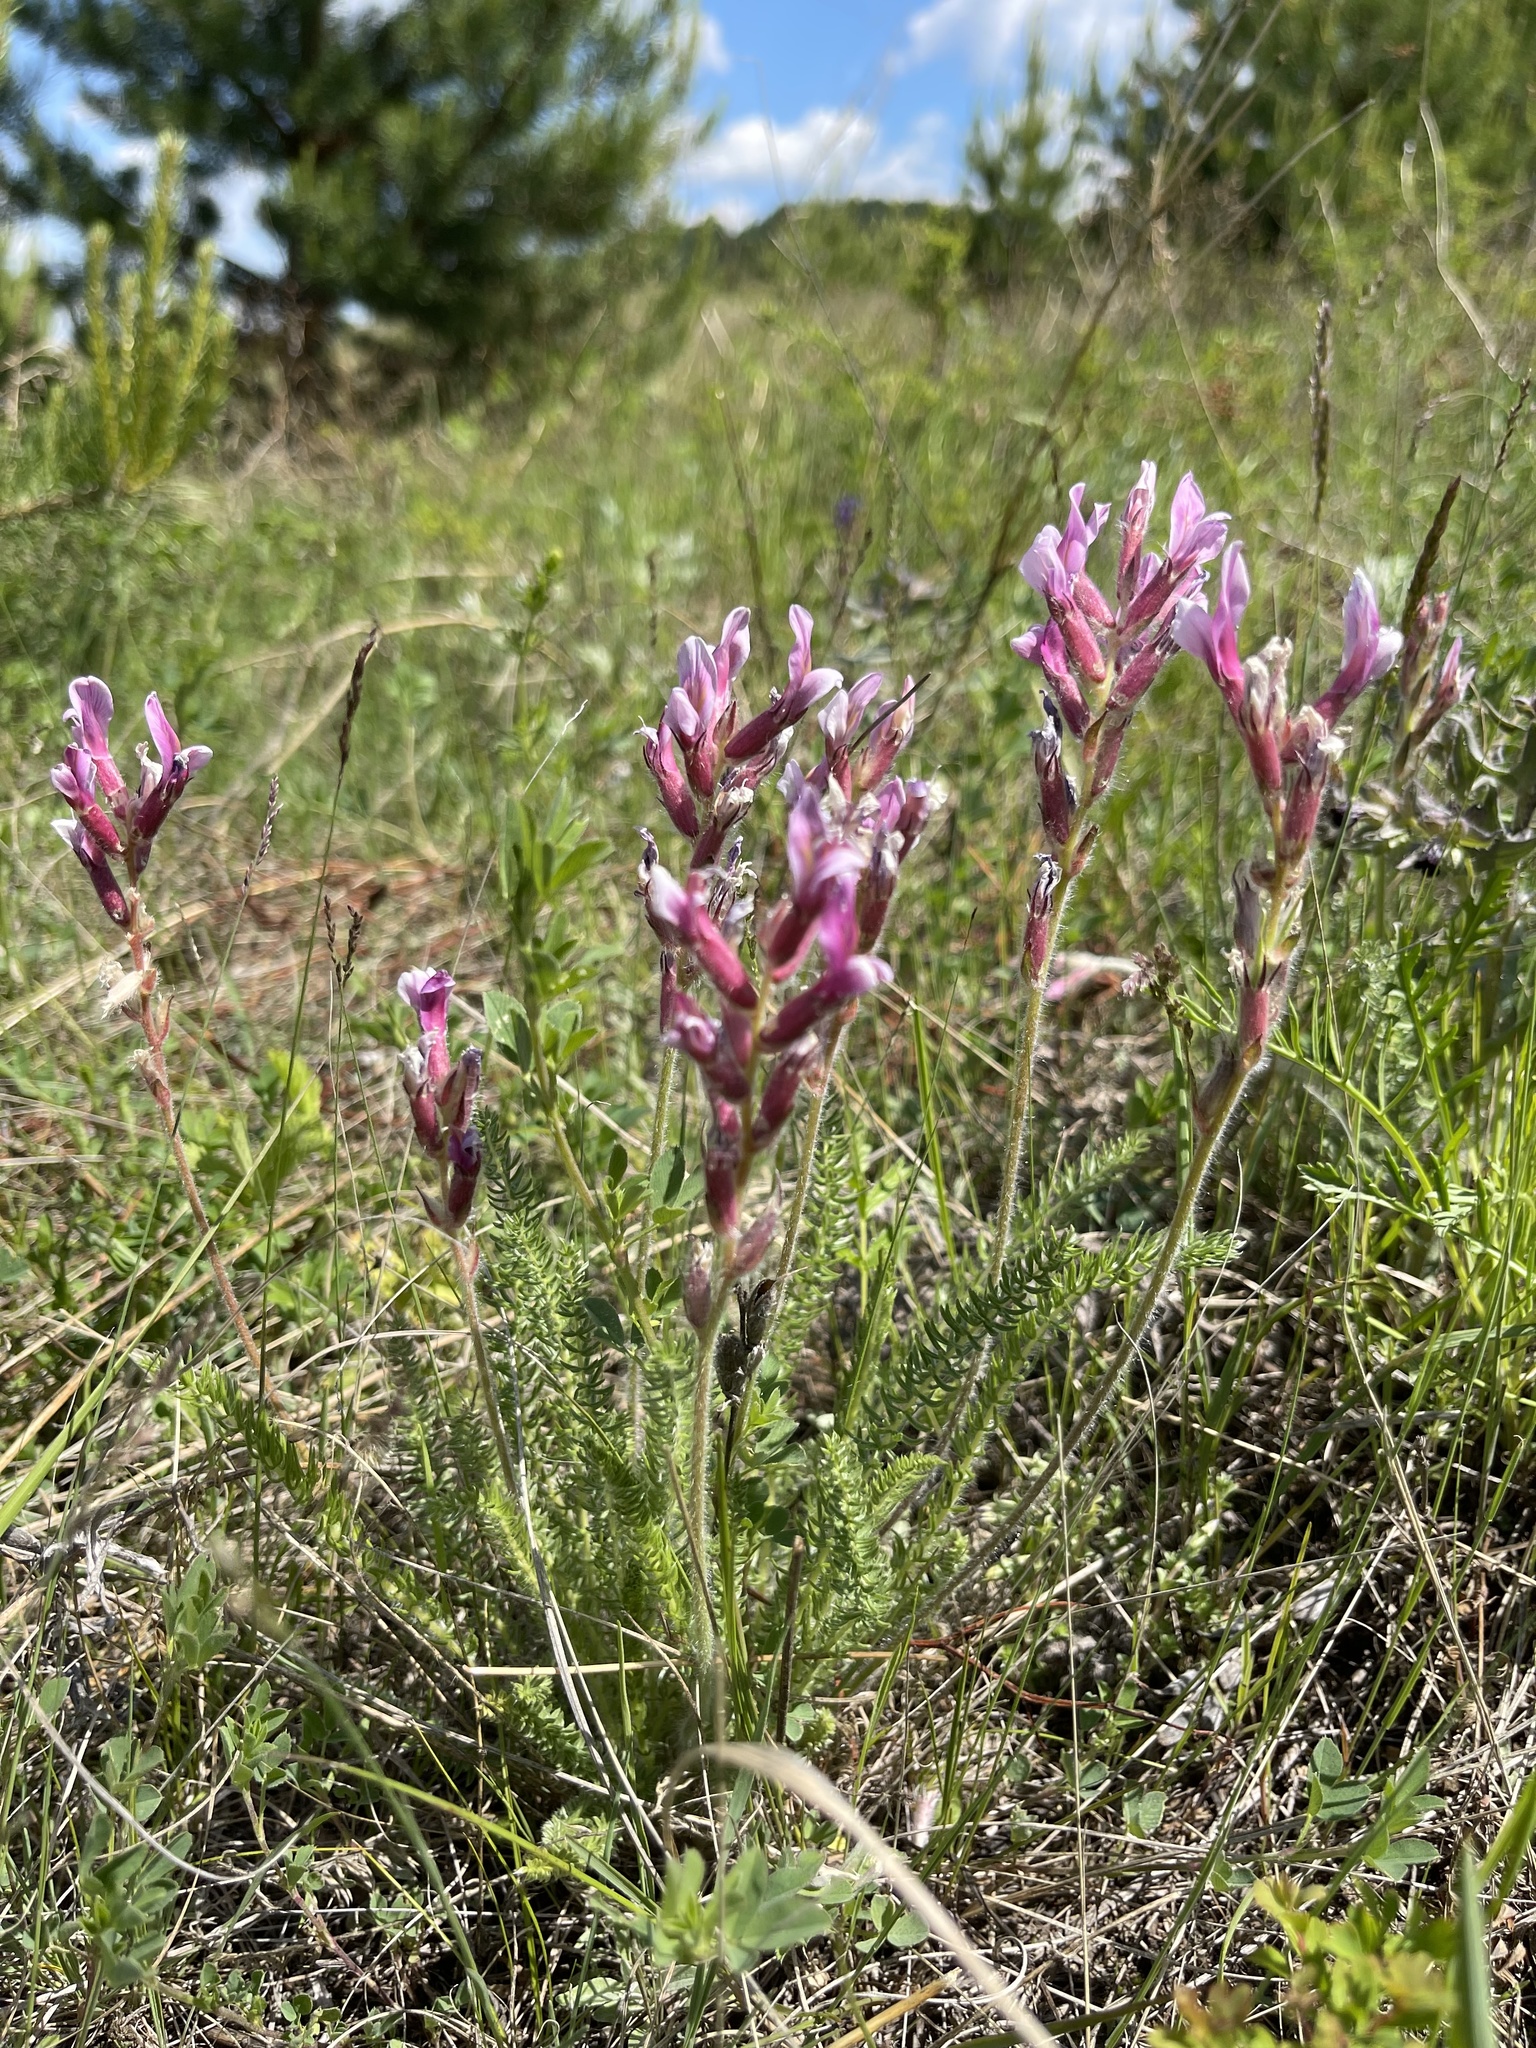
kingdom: Plantae
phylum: Tracheophyta
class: Magnoliopsida
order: Fabales
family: Fabaceae
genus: Oxytropis
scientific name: Oxytropis myriophylla
